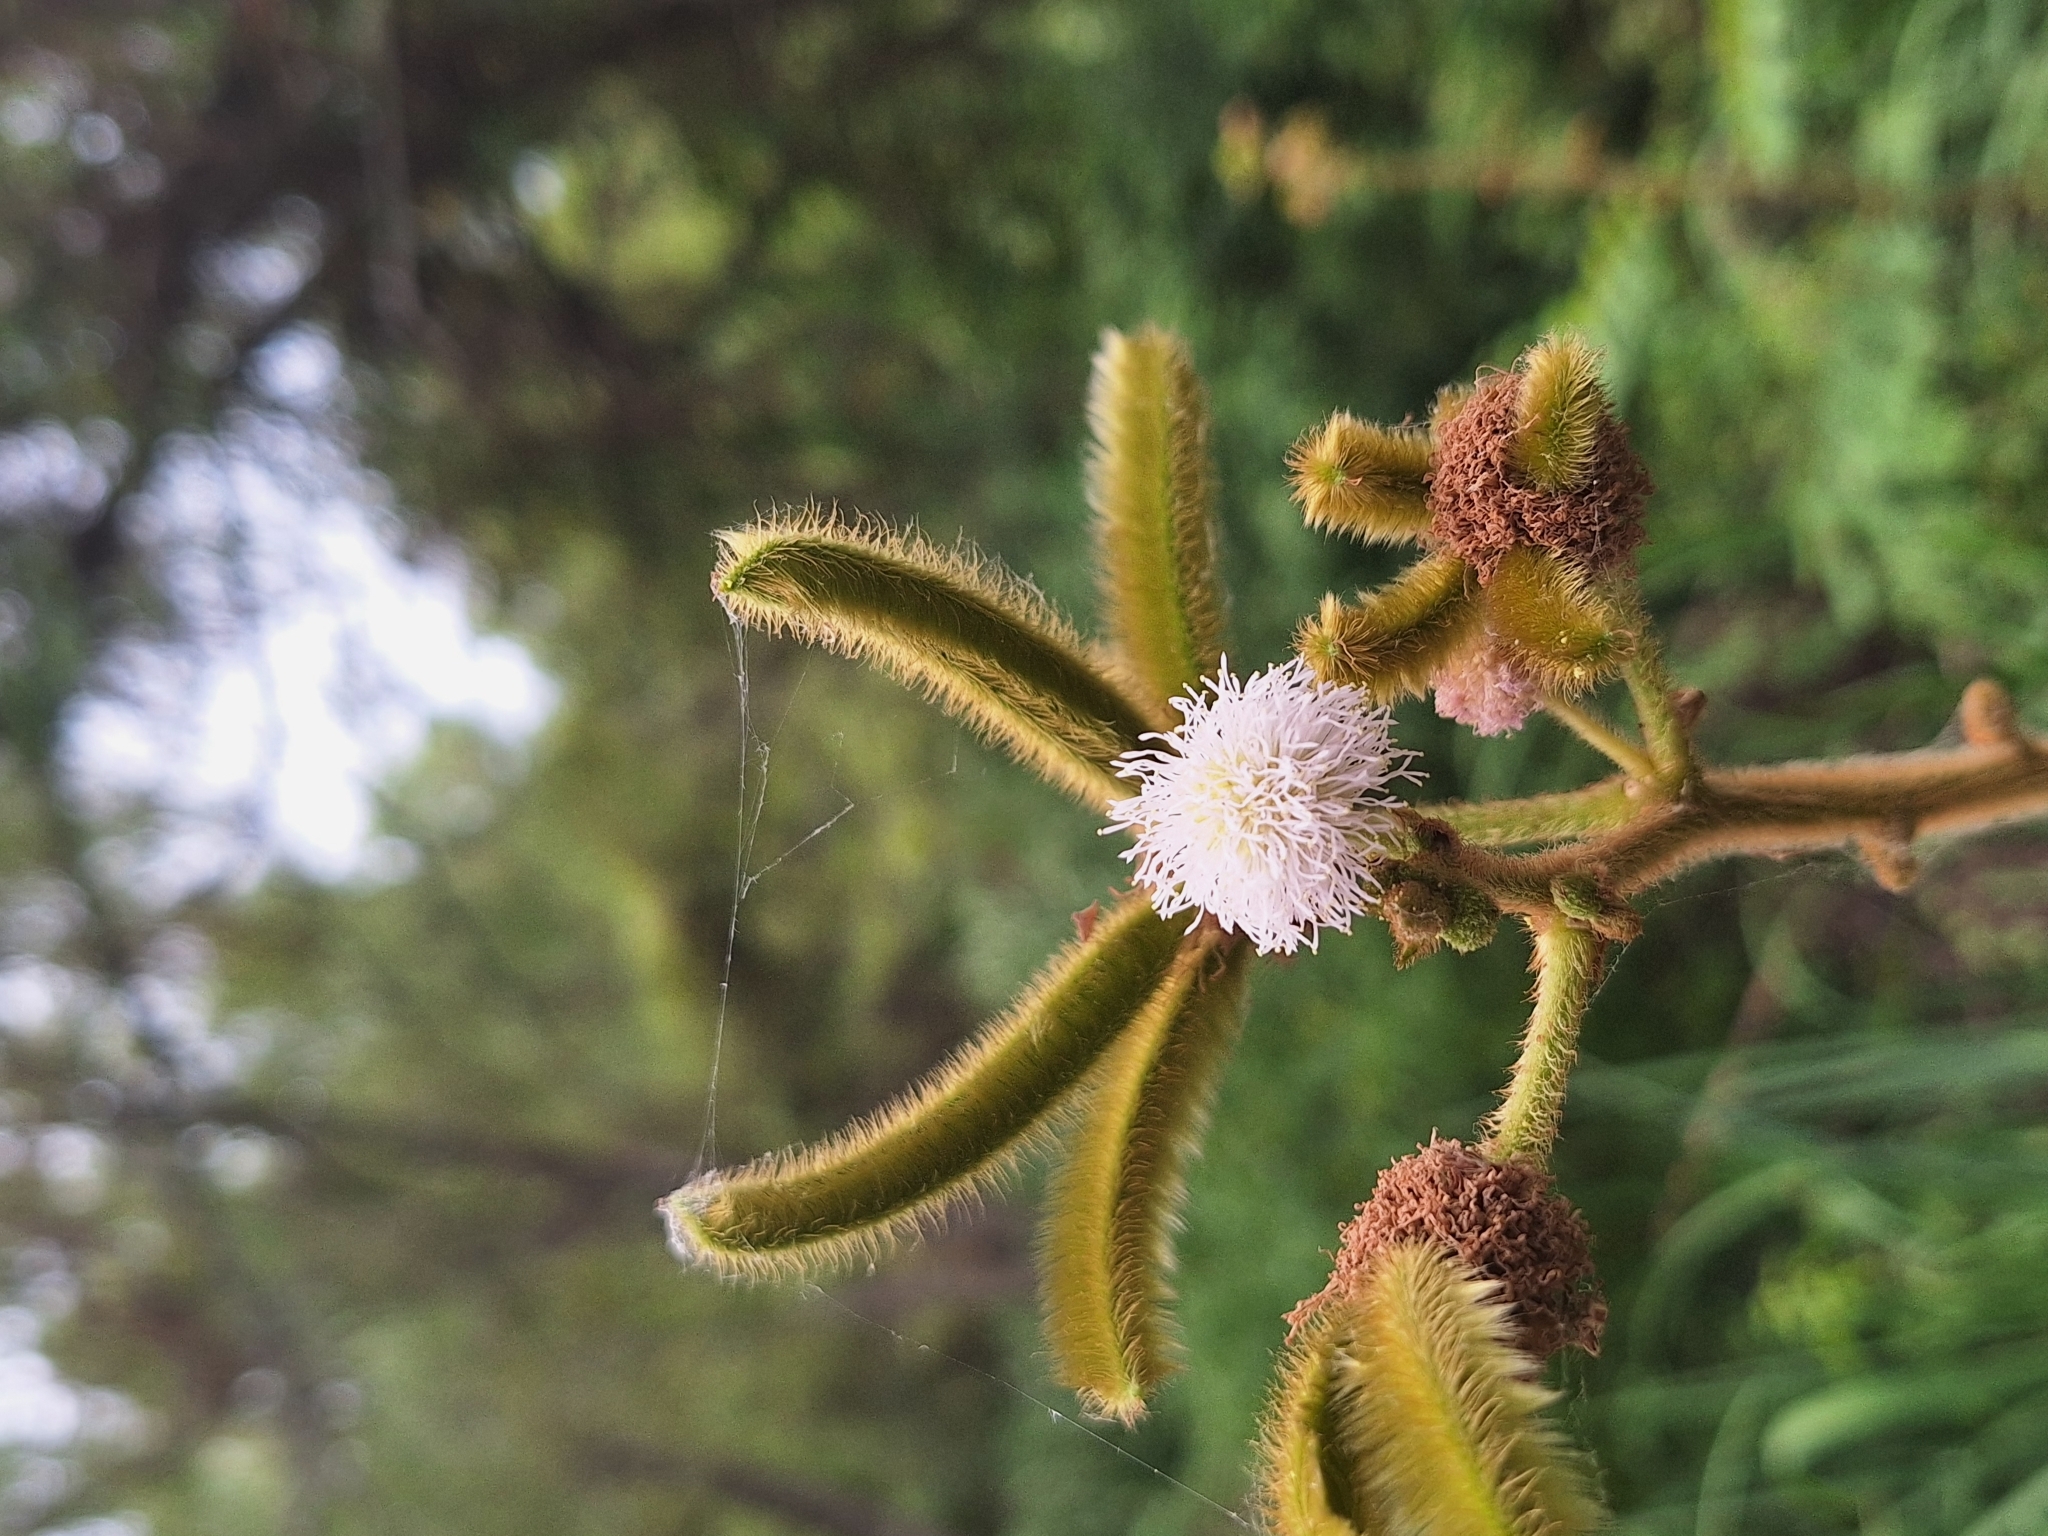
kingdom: Plantae
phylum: Tracheophyta
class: Magnoliopsida
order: Fabales
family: Fabaceae
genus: Mimosa
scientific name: Mimosa pigra
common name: Black mimosa
